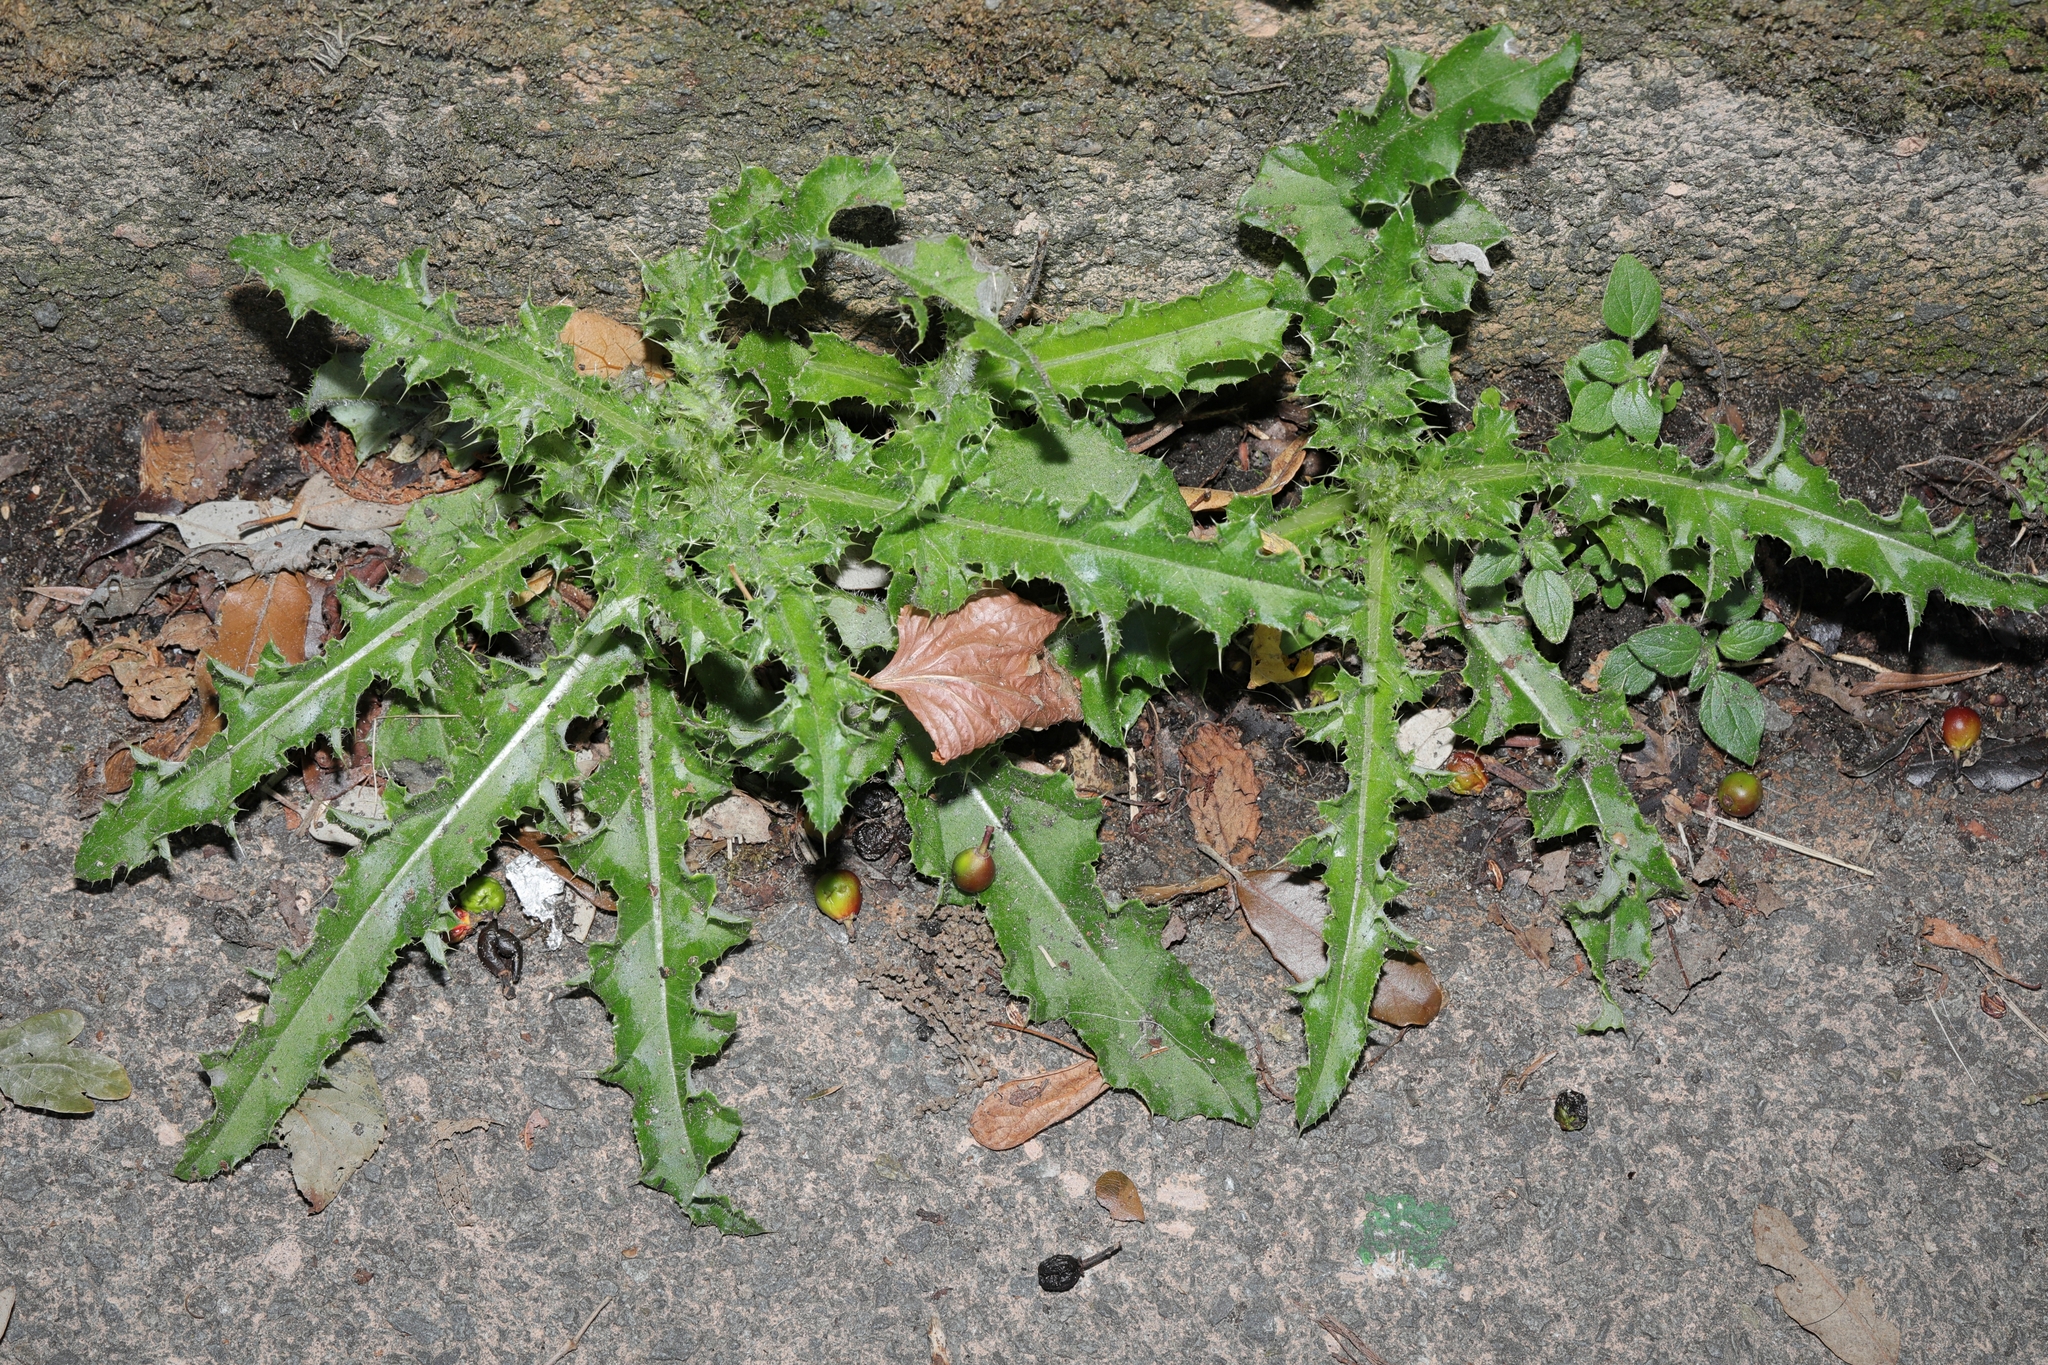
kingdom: Plantae
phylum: Tracheophyta
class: Magnoliopsida
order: Asterales
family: Asteraceae
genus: Sonchus
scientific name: Sonchus asper
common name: Prickly sow-thistle
